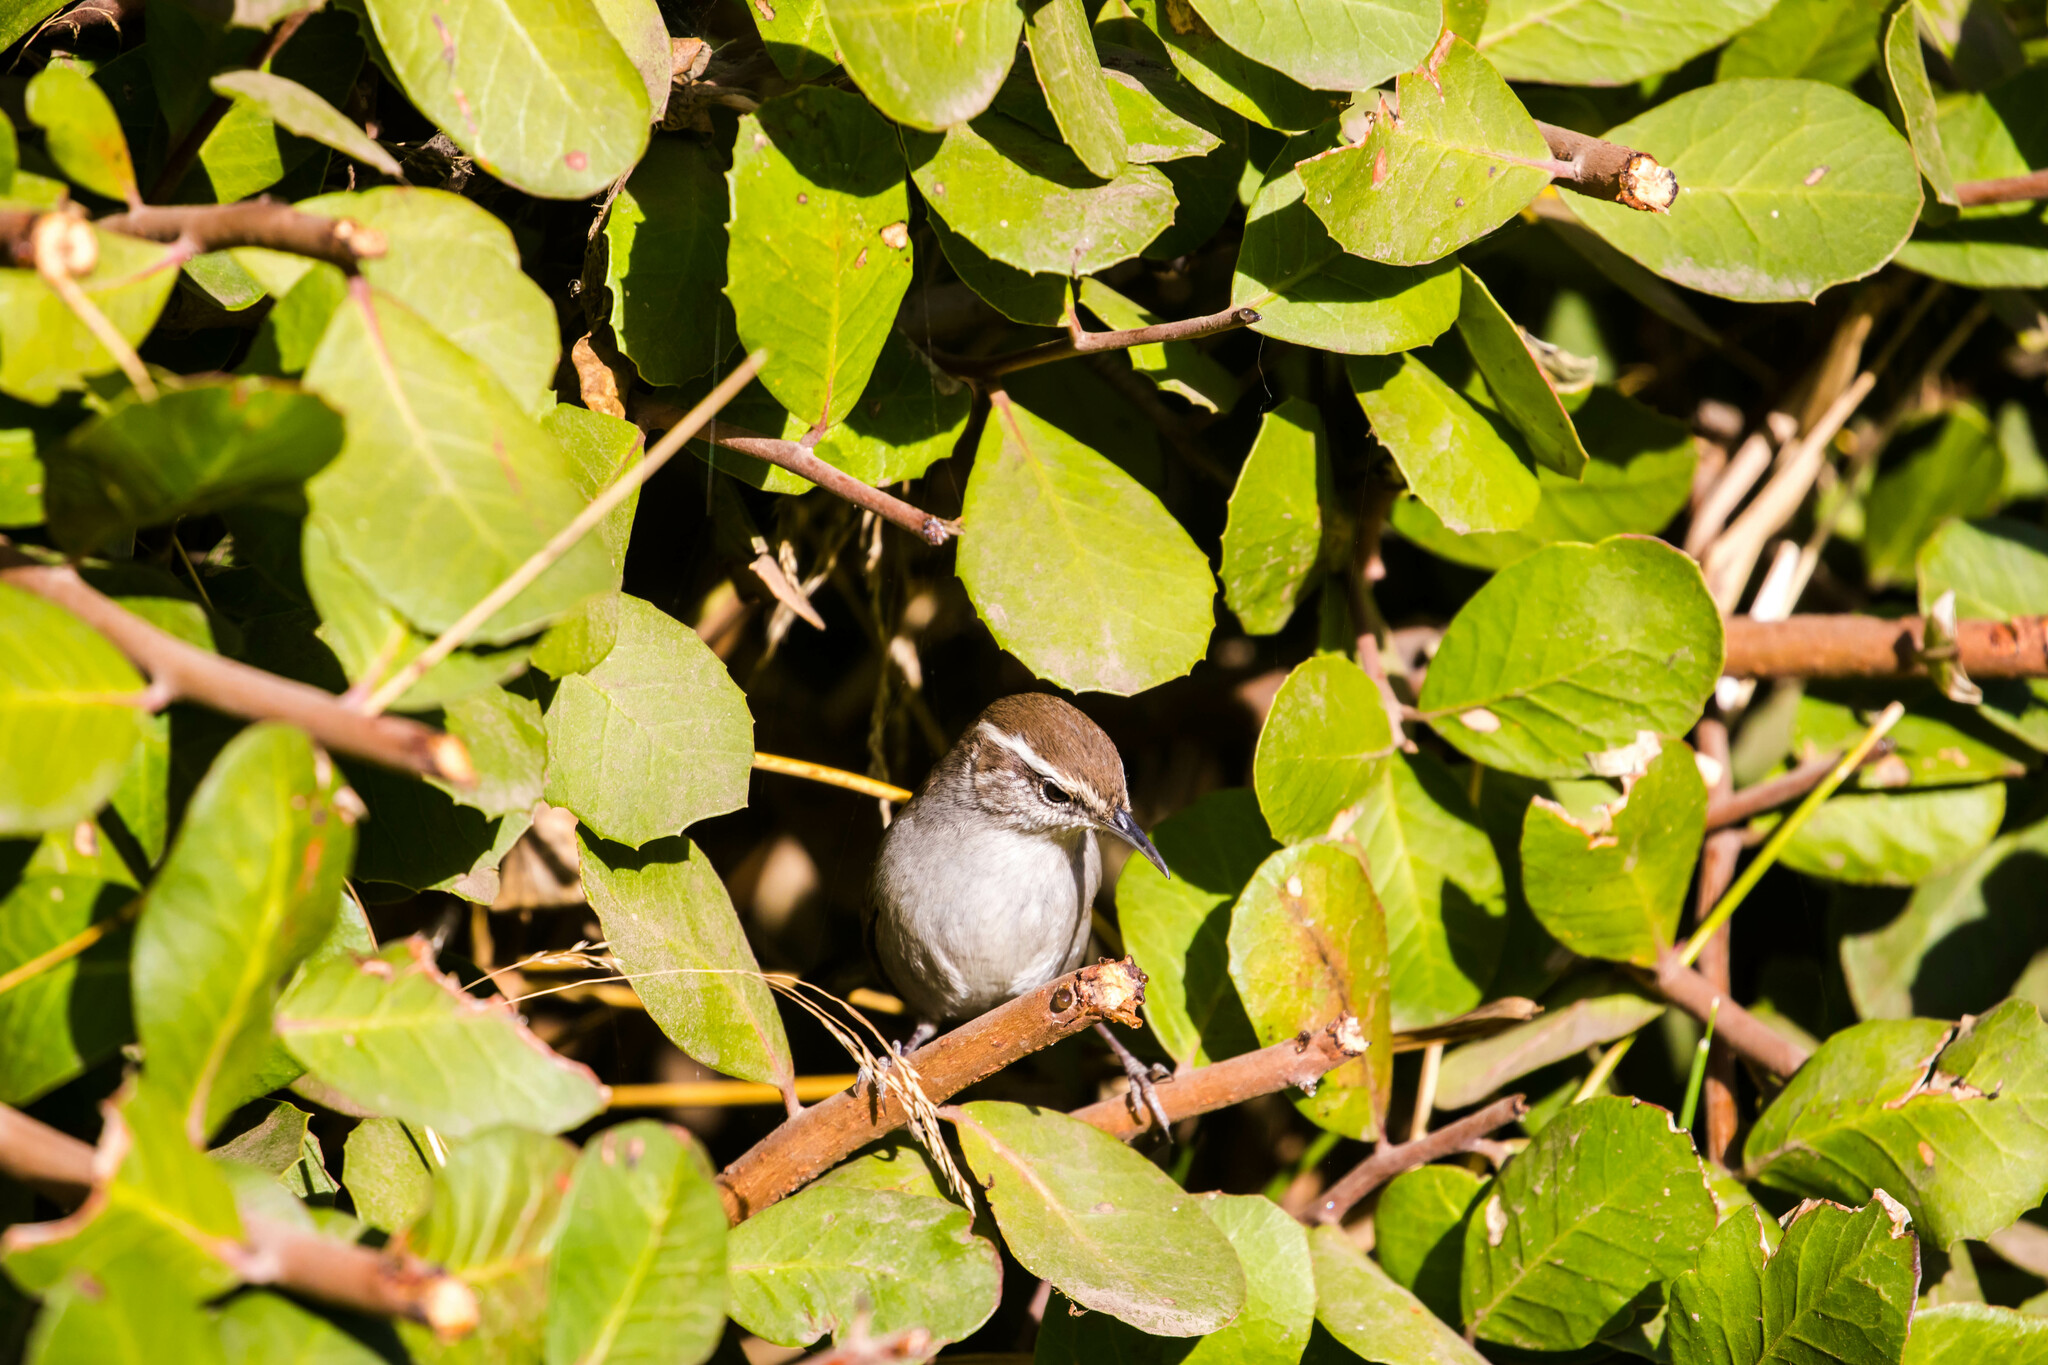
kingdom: Animalia
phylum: Chordata
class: Aves
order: Passeriformes
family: Troglodytidae
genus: Thryomanes
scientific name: Thryomanes bewickii
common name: Bewick's wren
